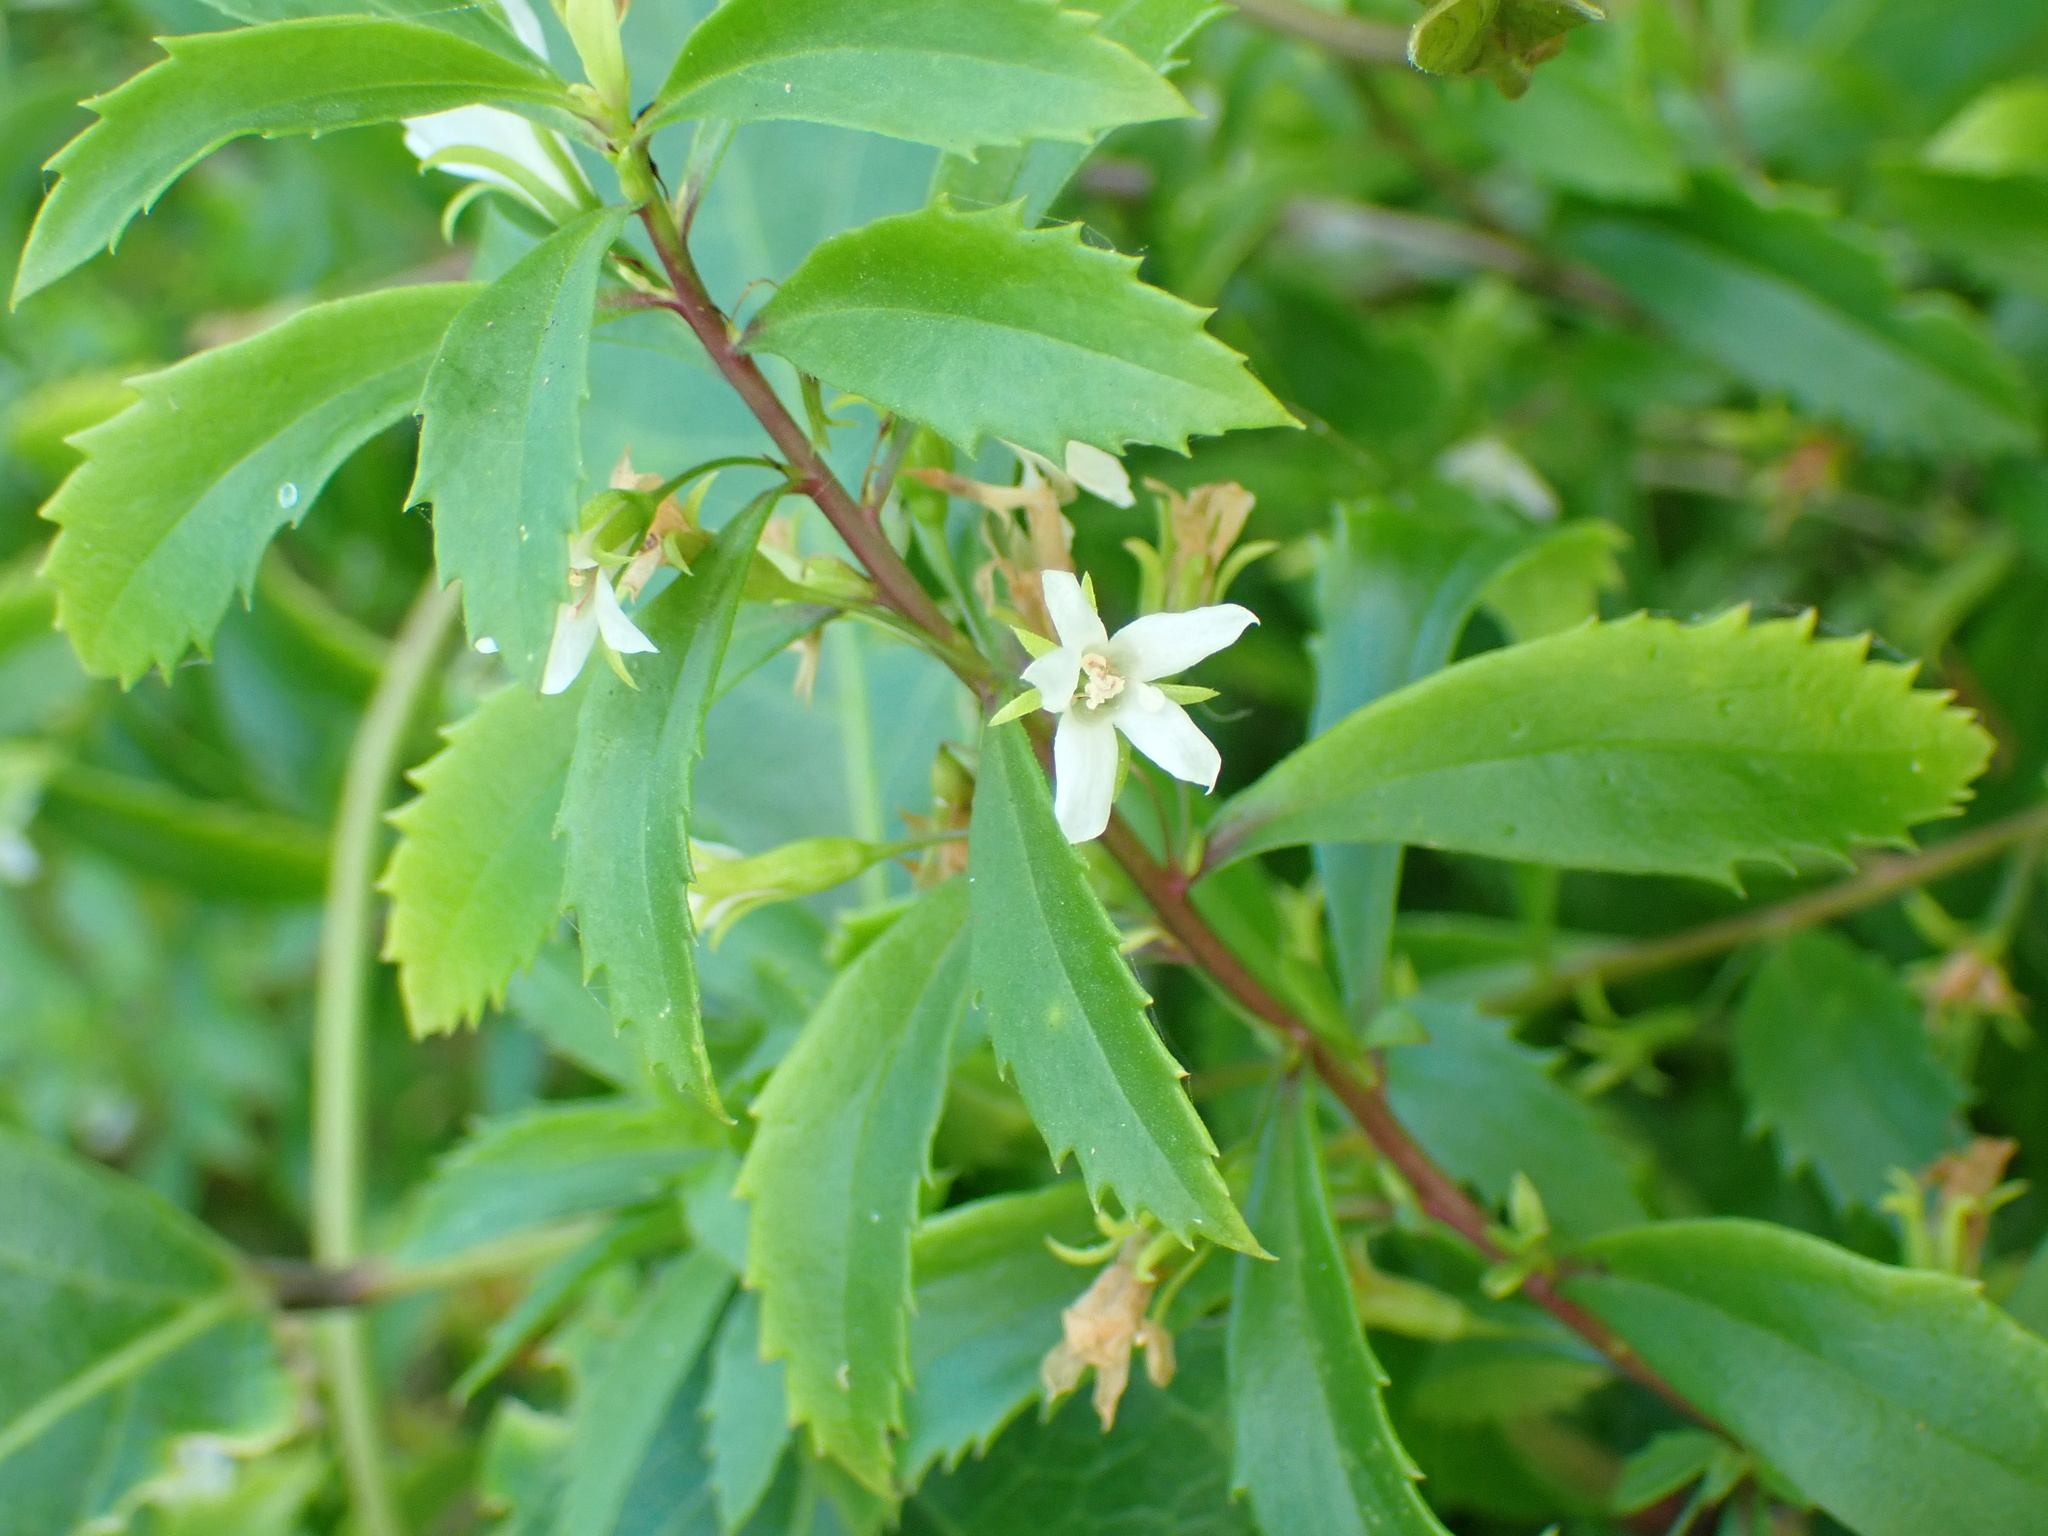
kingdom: Plantae
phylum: Tracheophyta
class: Magnoliopsida
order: Lamiales
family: Scrophulariaceae
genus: Capraria
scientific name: Capraria biflora
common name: Goatweed
